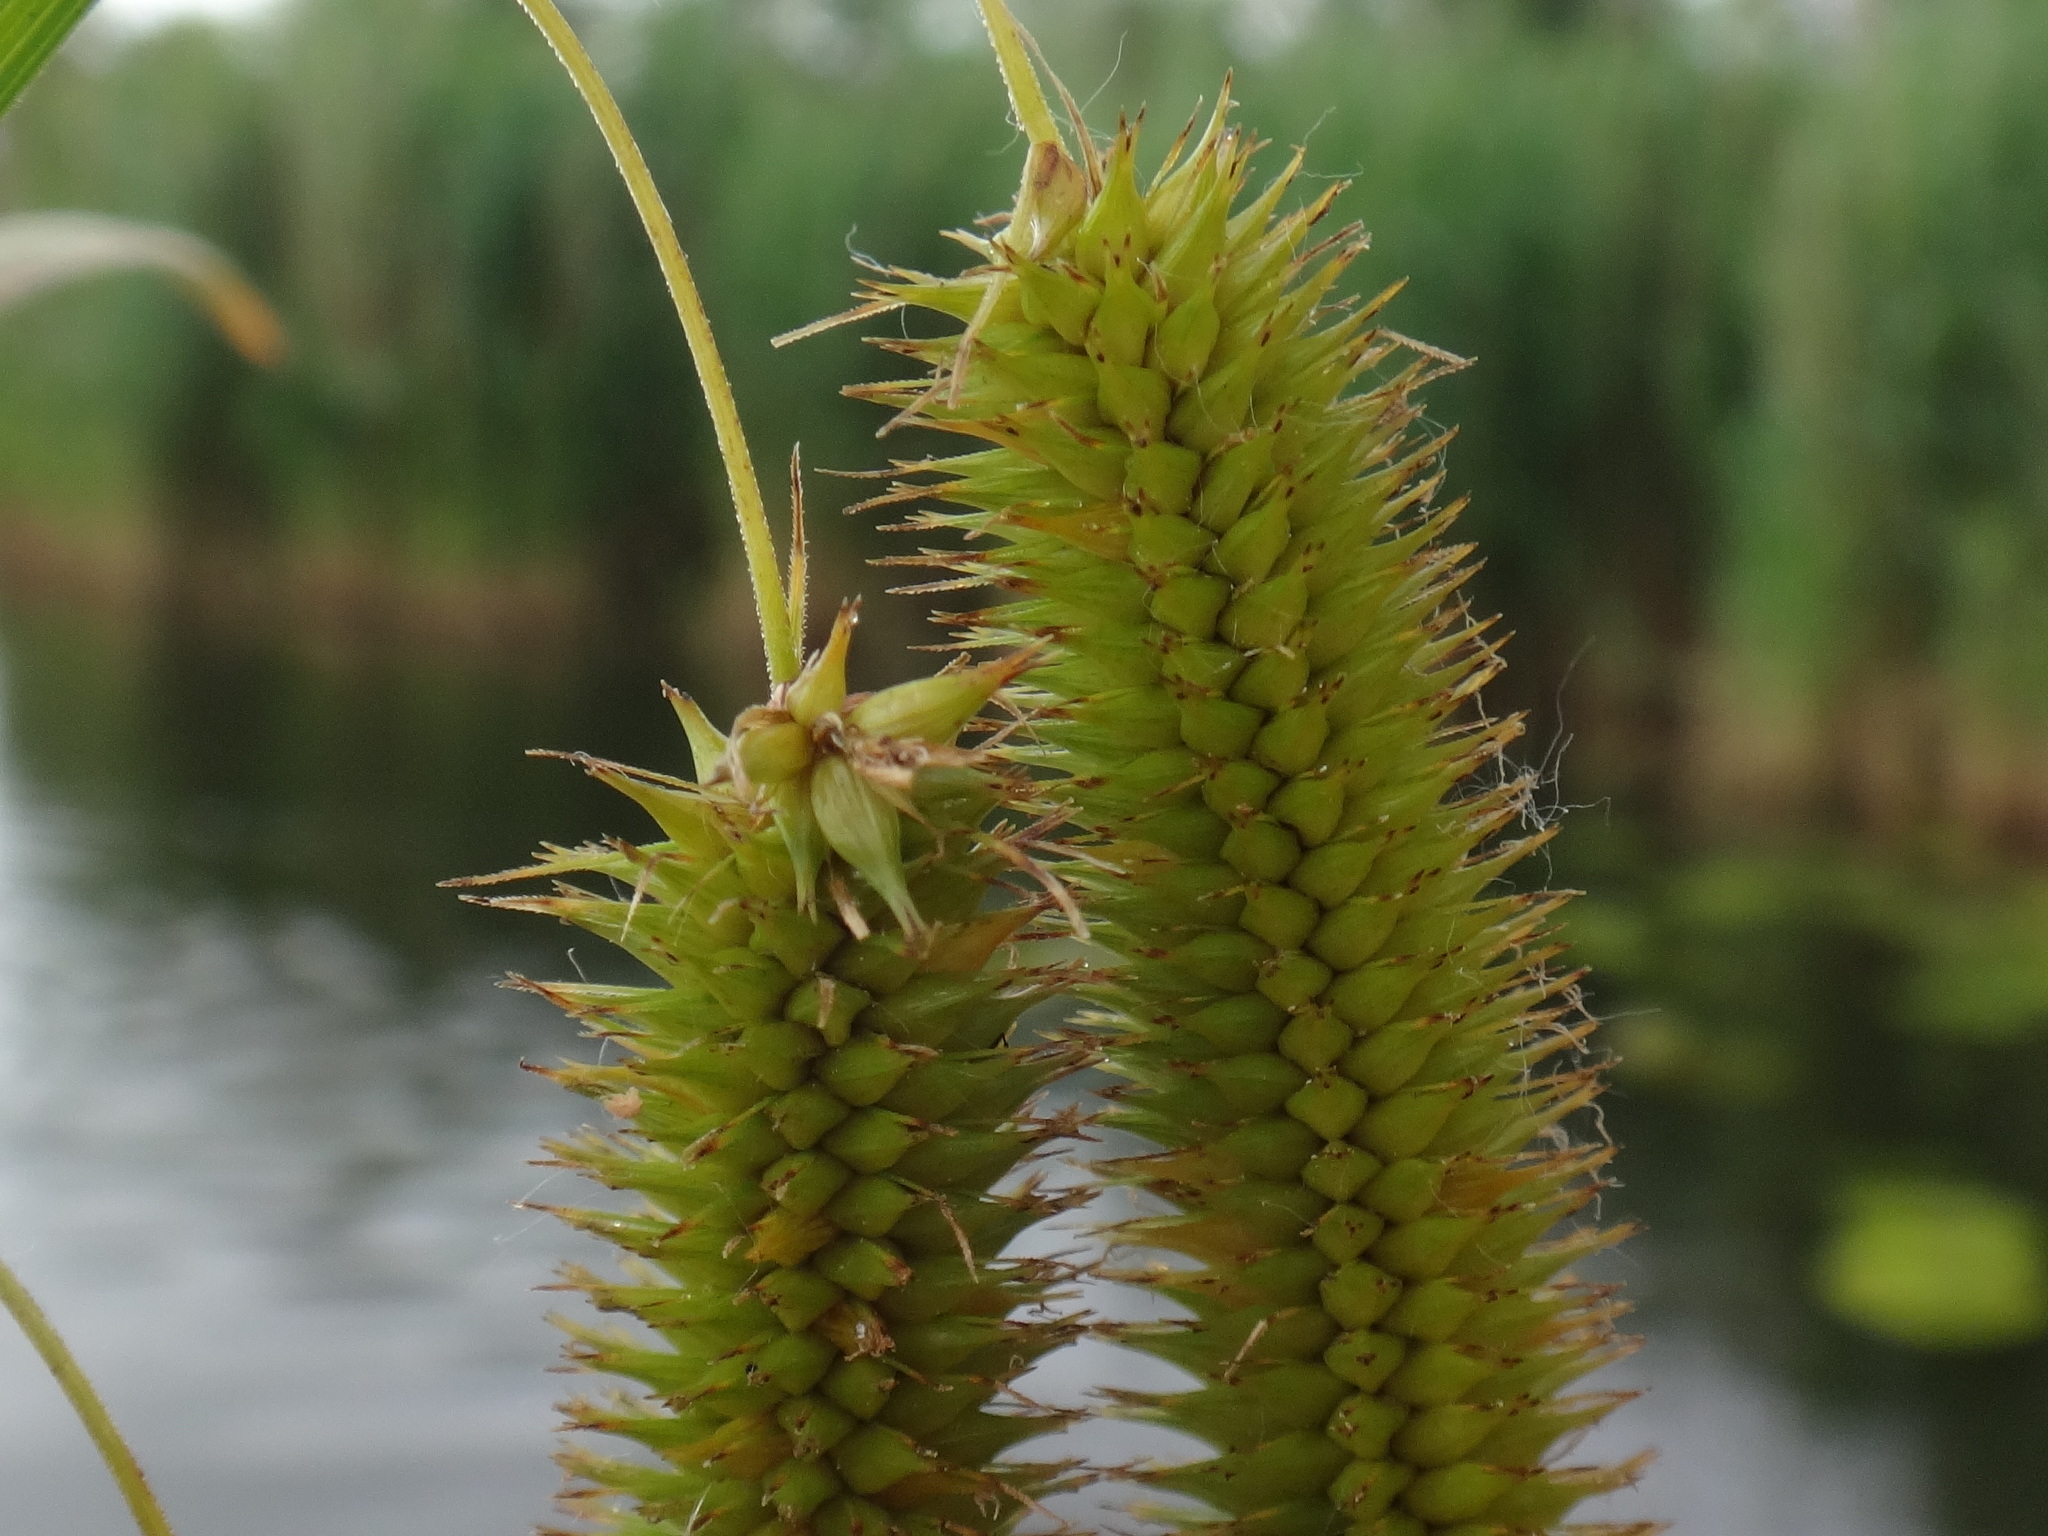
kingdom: Plantae
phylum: Tracheophyta
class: Liliopsida
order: Poales
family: Cyperaceae
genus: Carex
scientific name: Carex pseudocyperus
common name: Cyperus sedge
